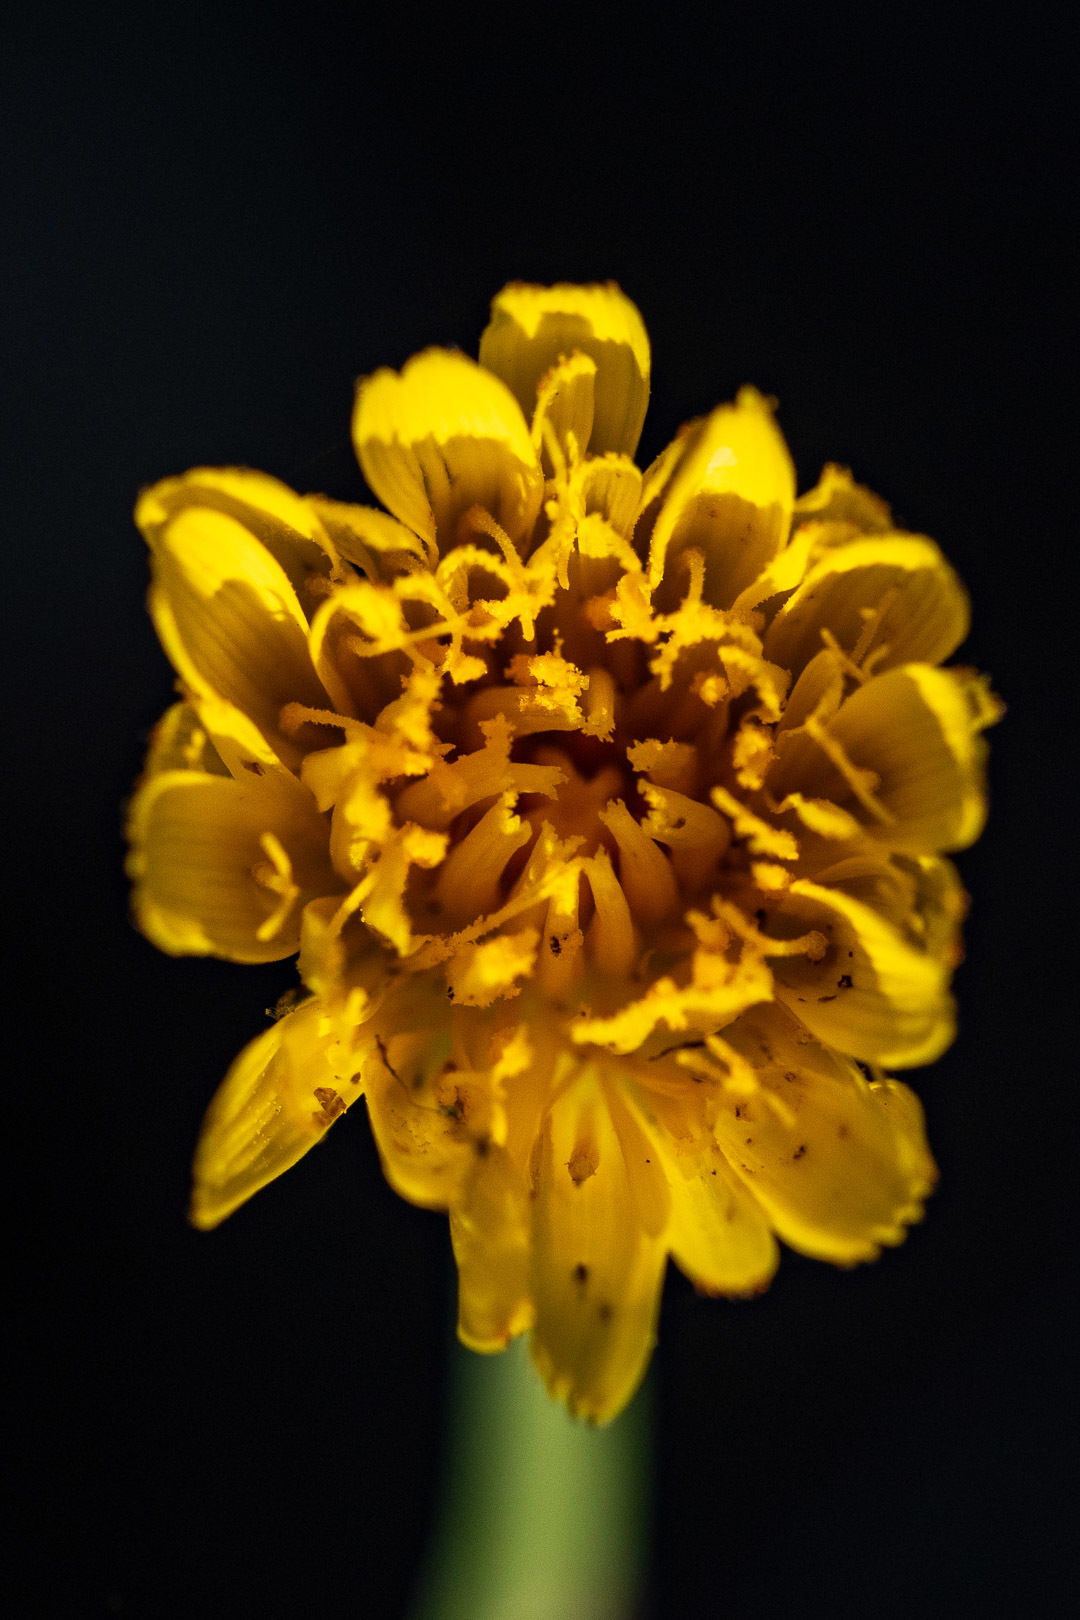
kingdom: Plantae
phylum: Tracheophyta
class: Magnoliopsida
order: Asterales
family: Asteraceae
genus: Hypochaeris
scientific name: Hypochaeris radicata
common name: Flatweed
